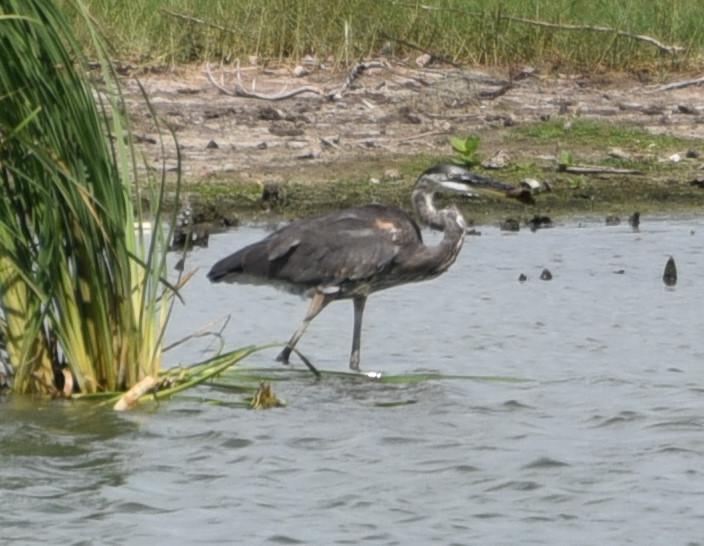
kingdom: Animalia
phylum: Chordata
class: Aves
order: Pelecaniformes
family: Ardeidae
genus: Ardea
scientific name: Ardea herodias
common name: Great blue heron
